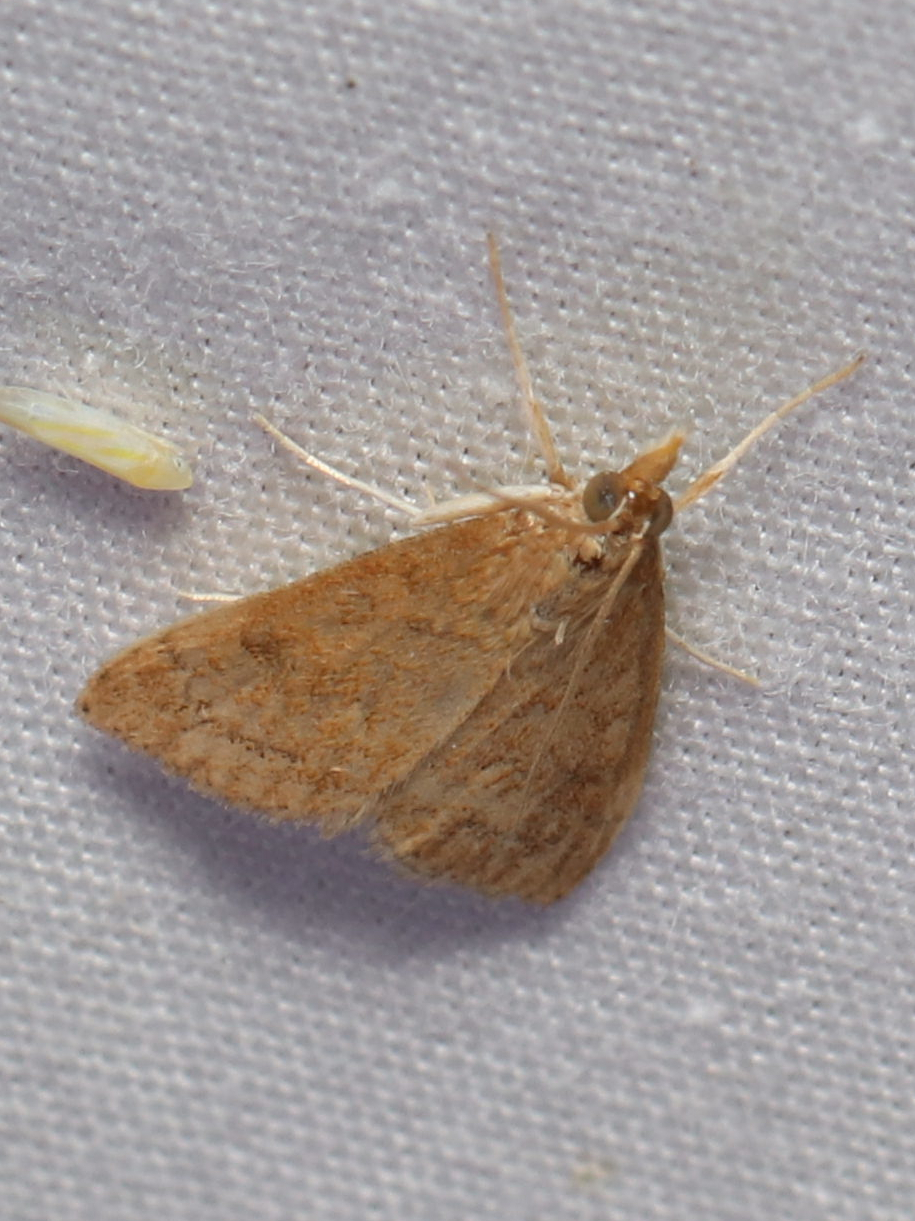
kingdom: Animalia
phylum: Arthropoda
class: Insecta
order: Lepidoptera
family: Crambidae
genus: Udea
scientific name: Udea rubigalis
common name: Celery leaftier moth
